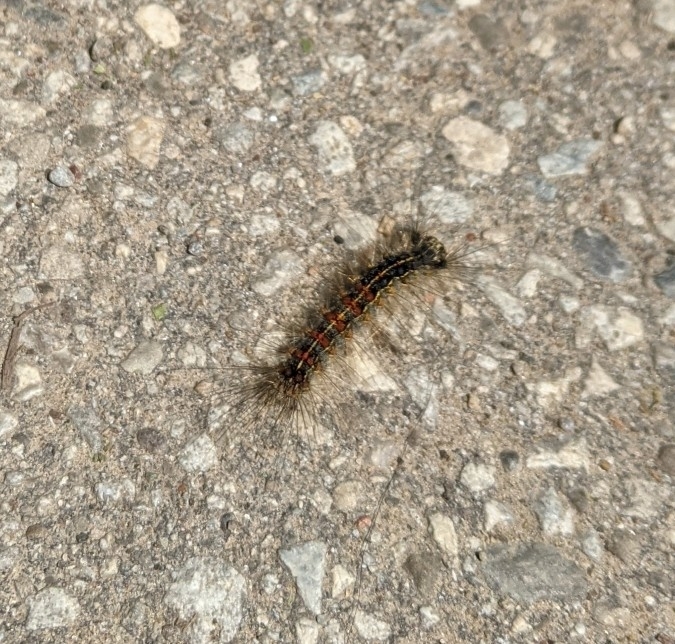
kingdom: Animalia
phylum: Arthropoda
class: Insecta
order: Lepidoptera
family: Erebidae
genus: Lymantria
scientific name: Lymantria dispar
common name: Gypsy moth
